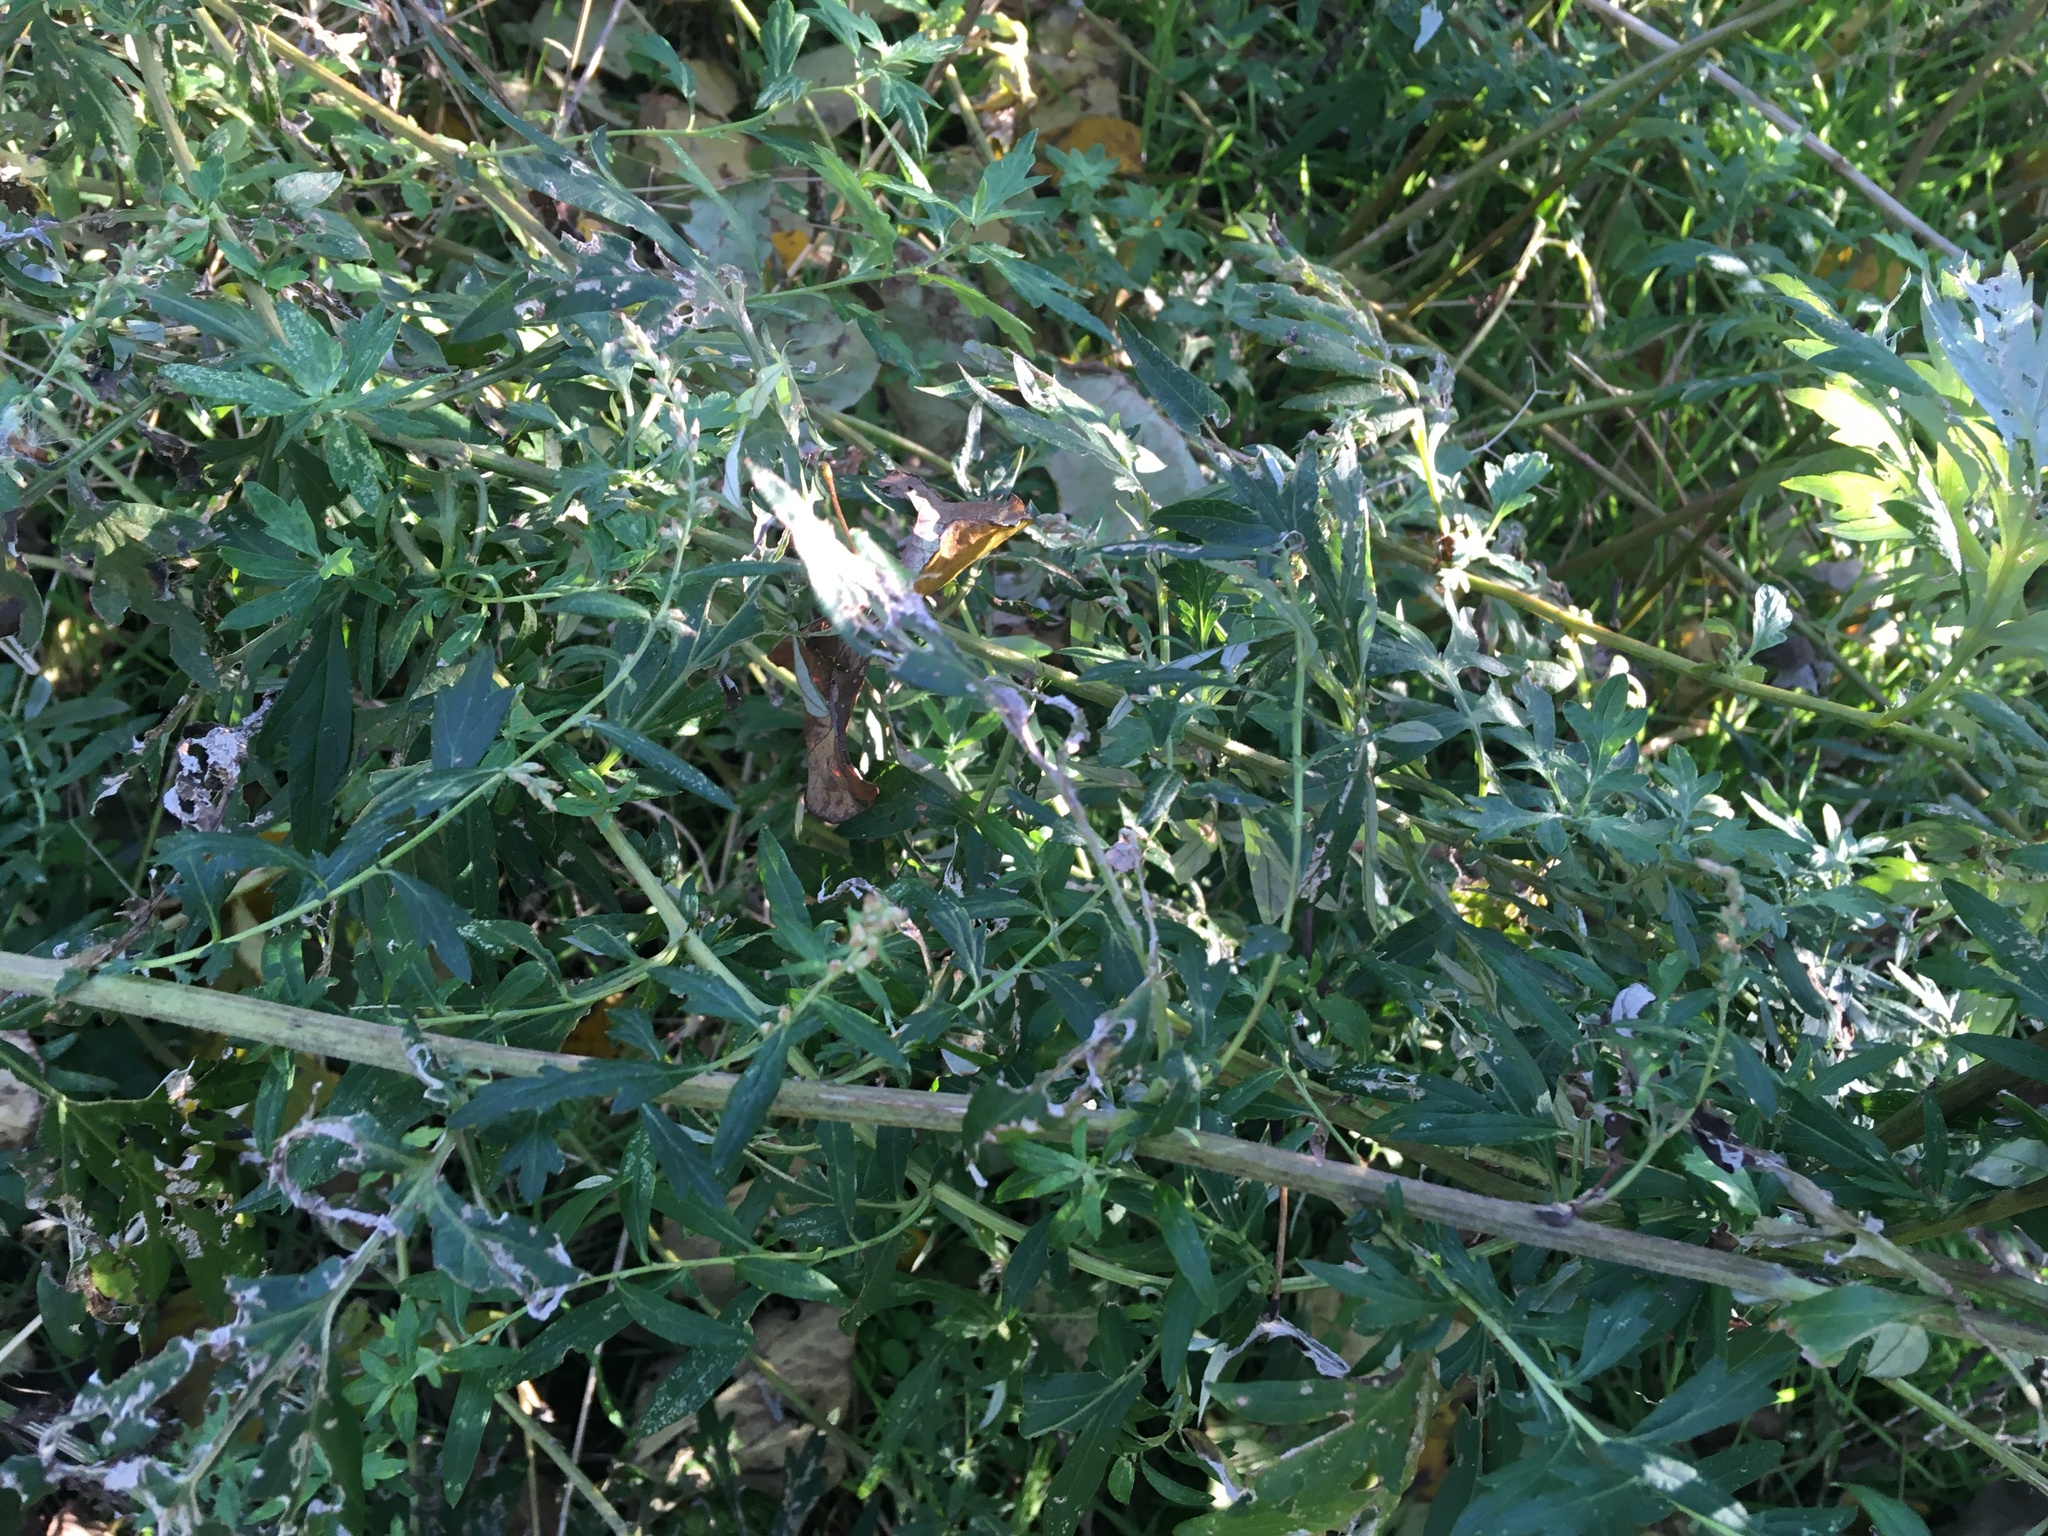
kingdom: Plantae
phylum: Tracheophyta
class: Magnoliopsida
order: Asterales
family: Asteraceae
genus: Artemisia
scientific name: Artemisia vulgaris
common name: Mugwort
